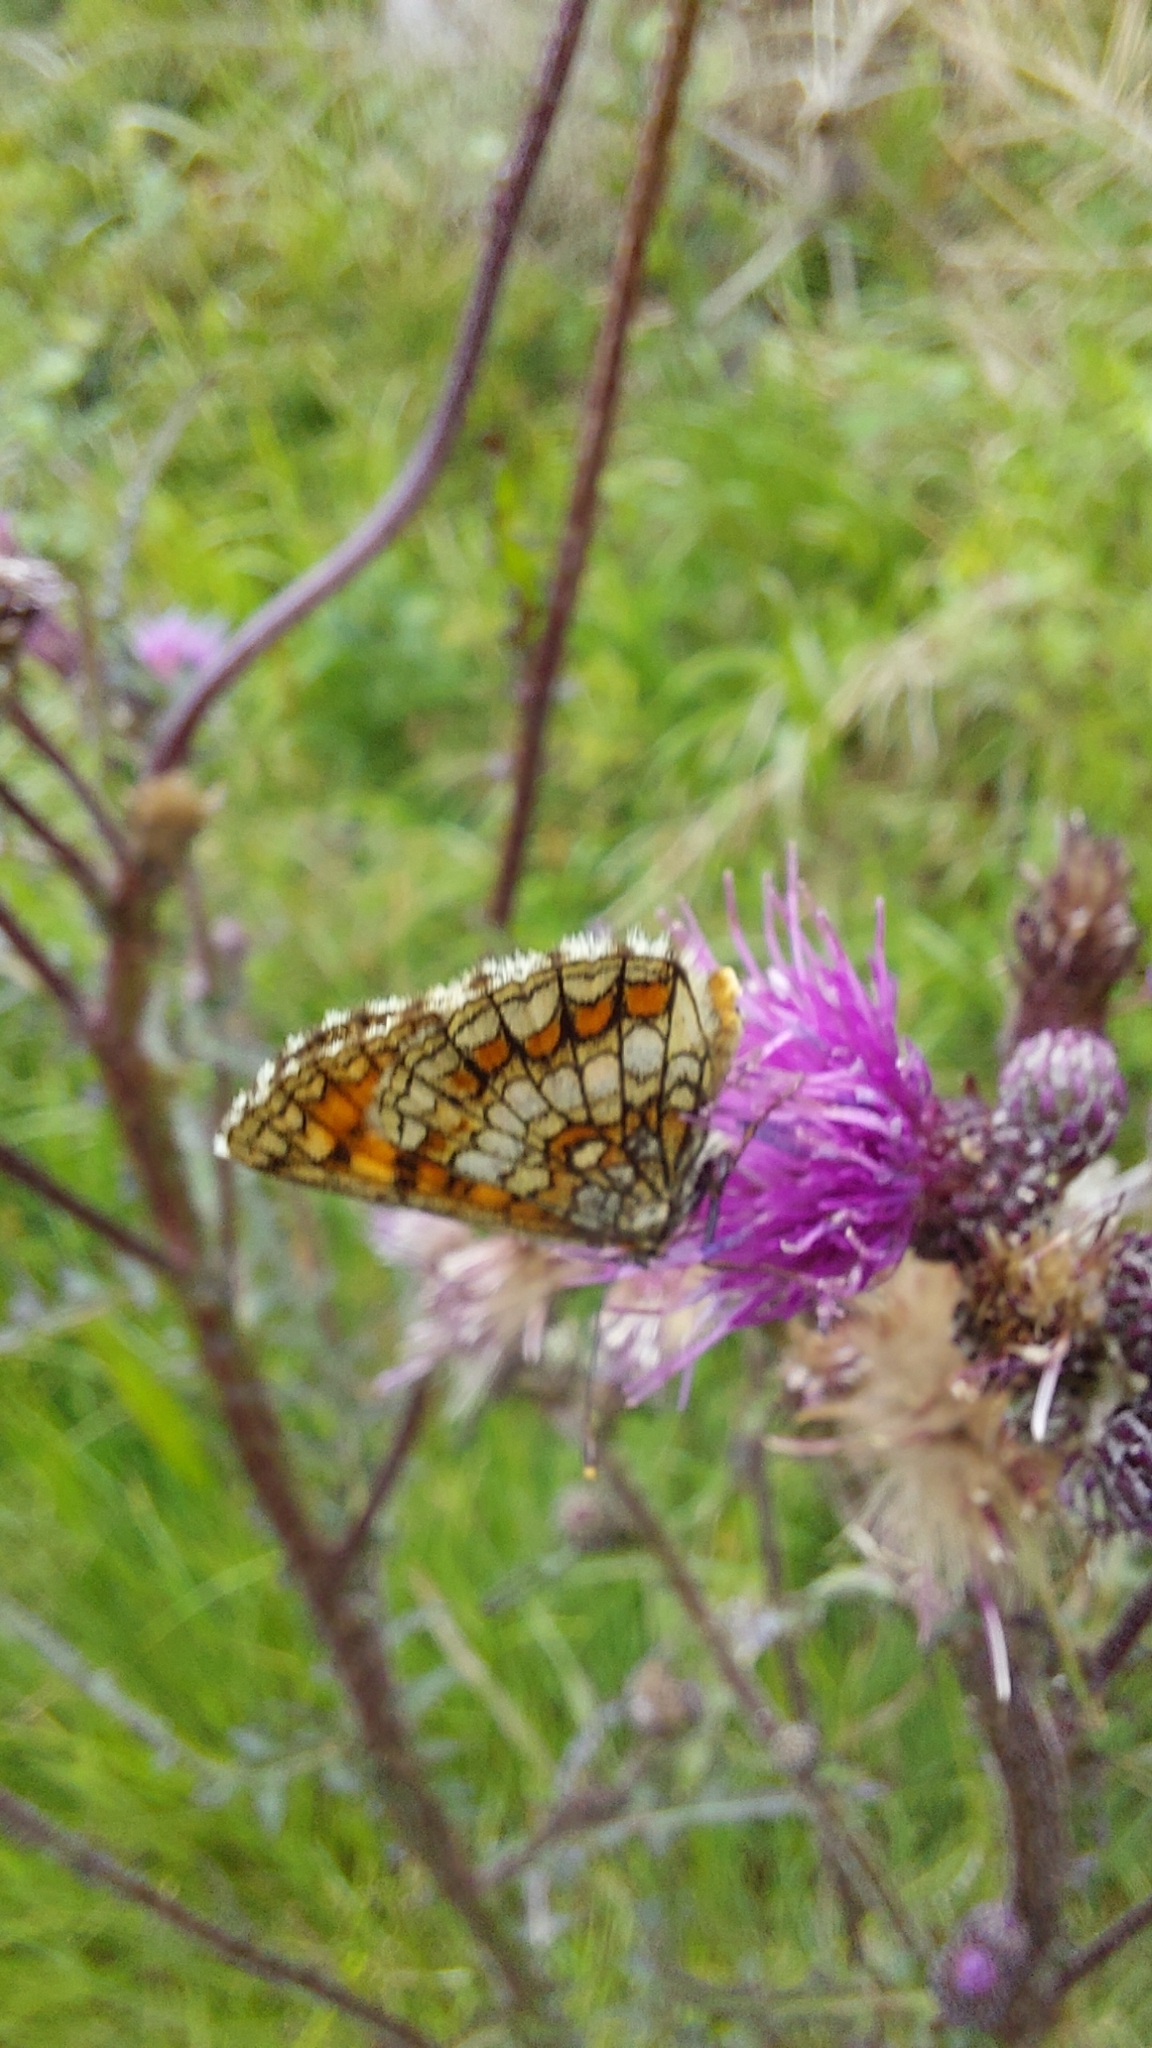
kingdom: Animalia
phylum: Arthropoda
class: Insecta
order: Lepidoptera
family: Nymphalidae
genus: Melitaea
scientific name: Melitaea athalia
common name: Heath fritillary
